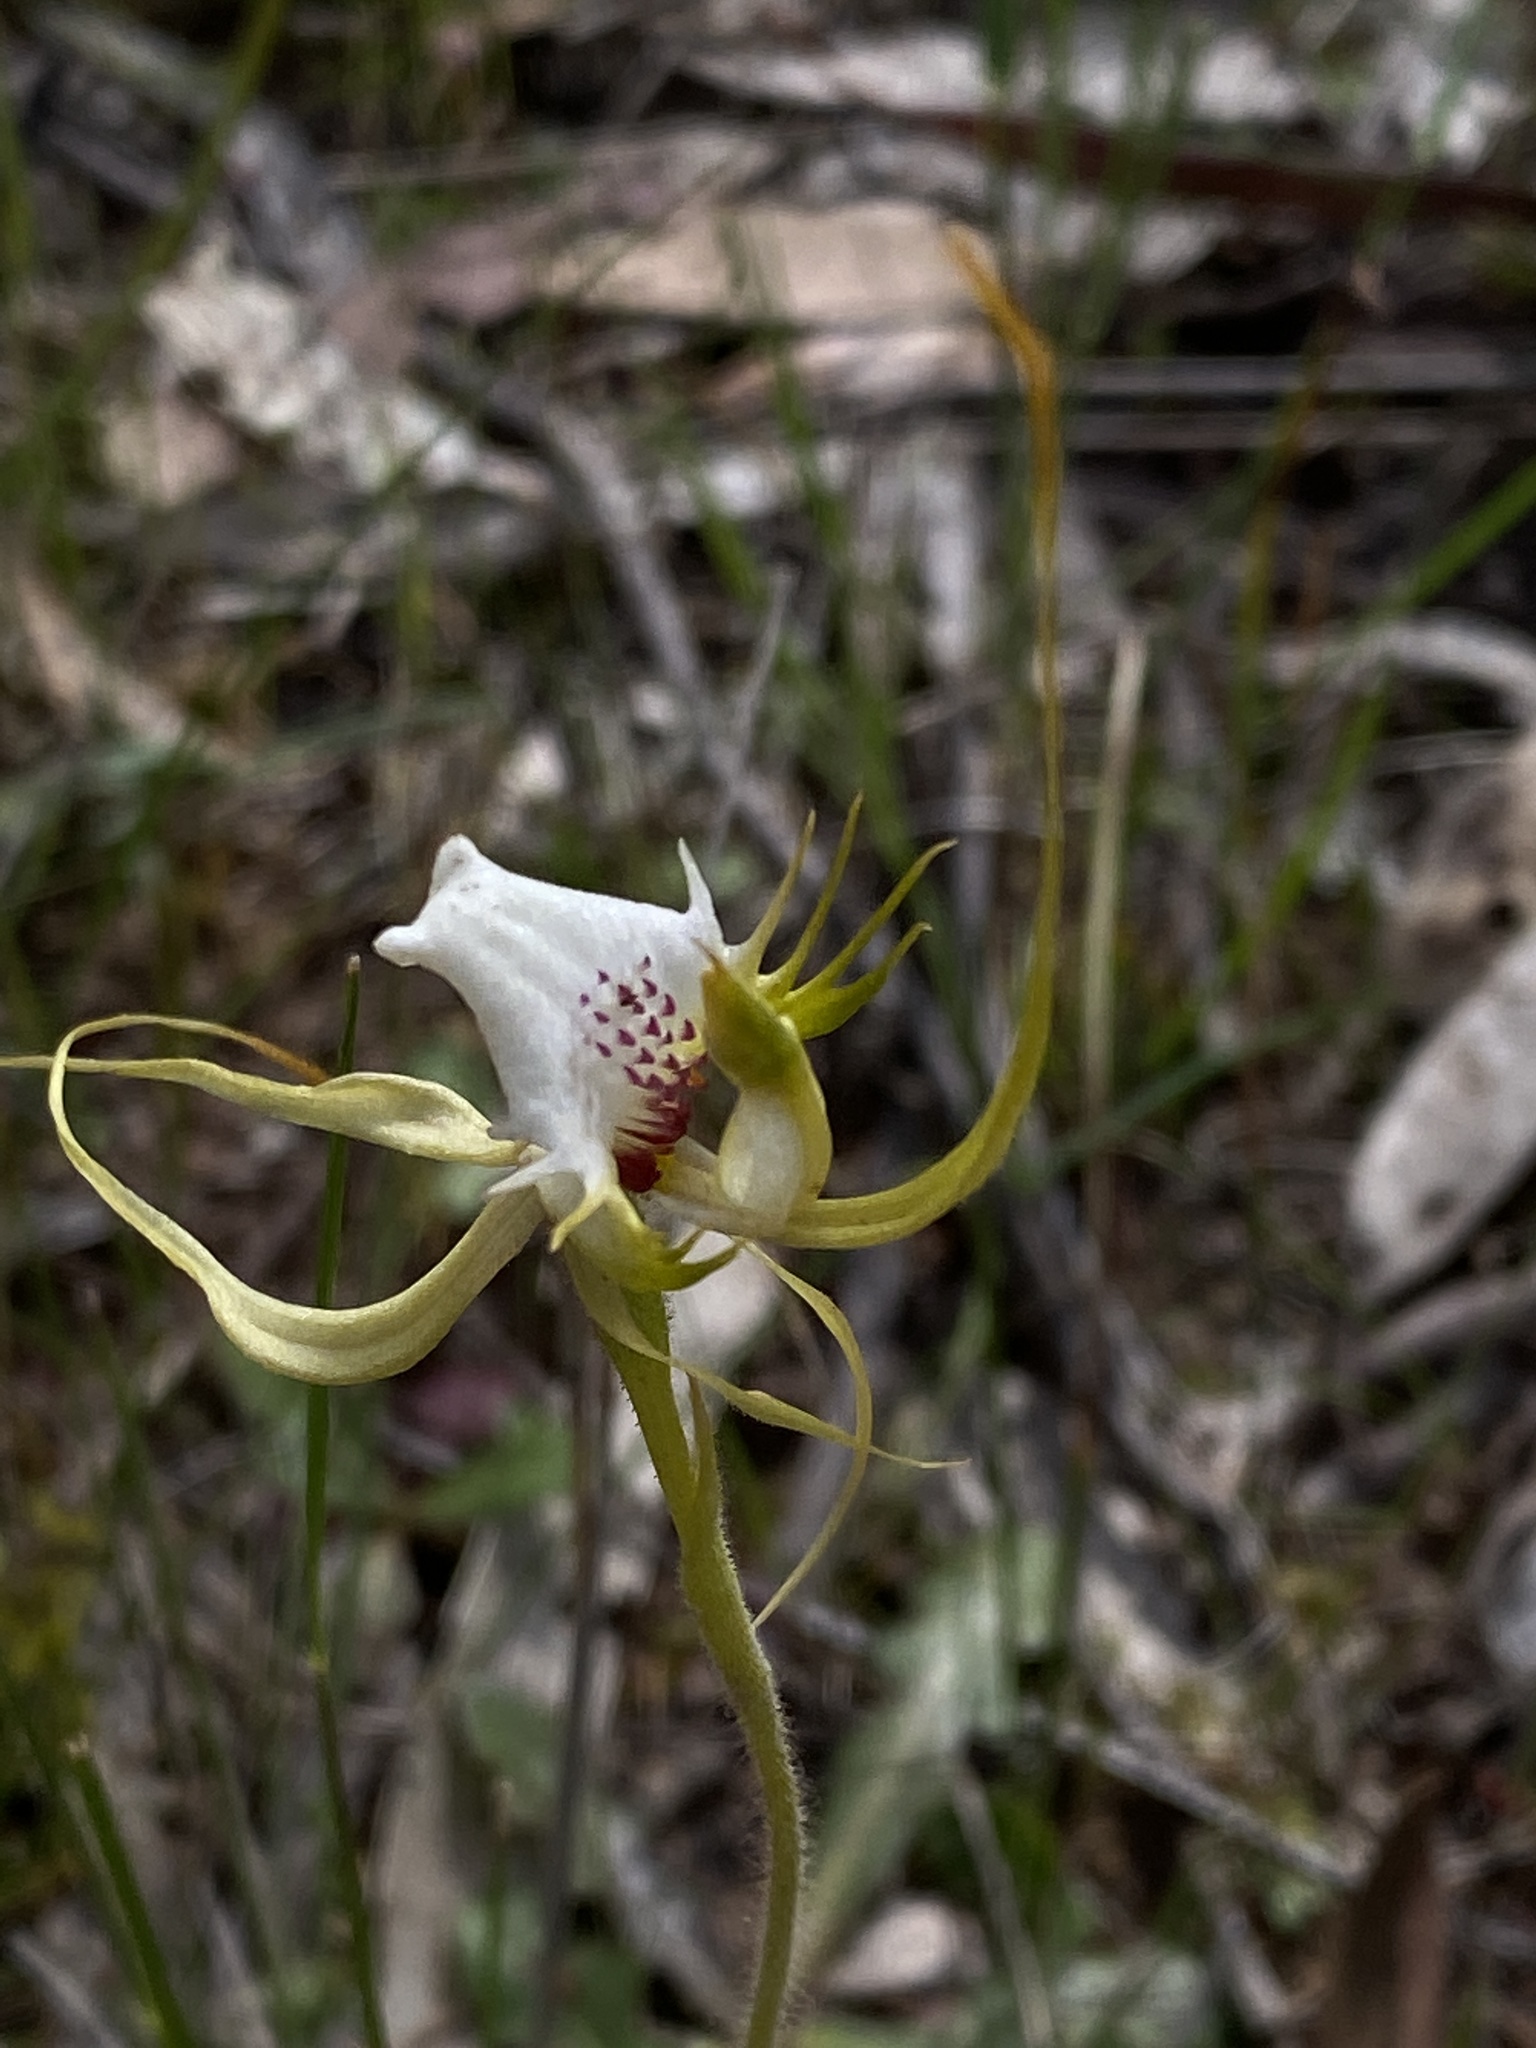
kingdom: Plantae
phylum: Tracheophyta
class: Liliopsida
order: Asparagales
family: Orchidaceae
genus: Caladenia
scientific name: Caladenia tentaculata
